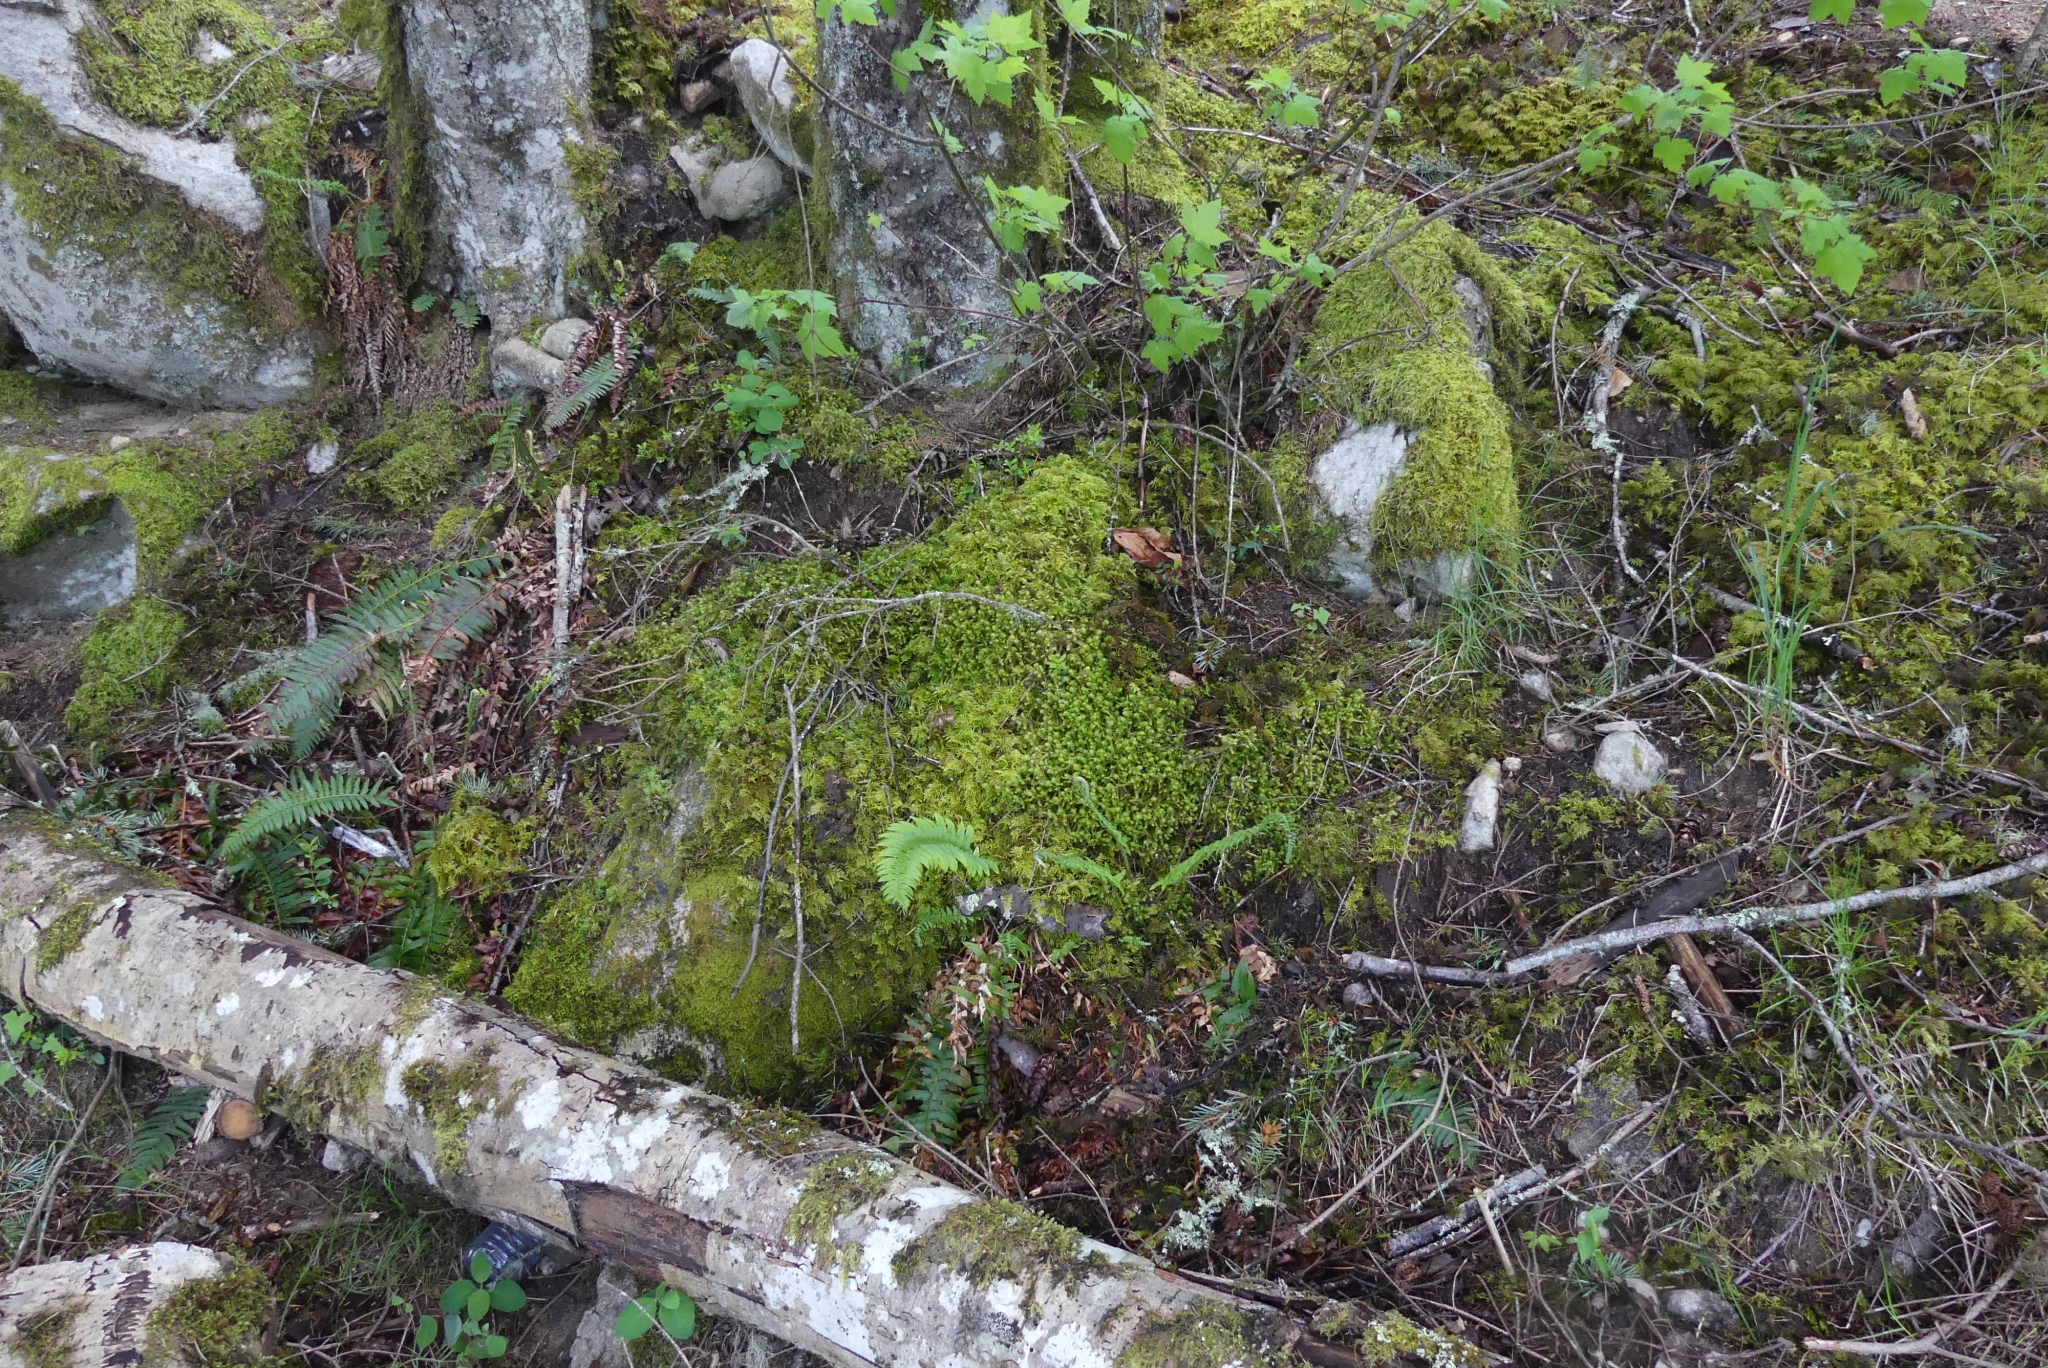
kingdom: Plantae
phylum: Bryophyta
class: Bryopsida
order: Hypnales
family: Hylocomiaceae
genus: Hylocomiadelphus
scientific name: Hylocomiadelphus triquetrus
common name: Rough goose neck moss
